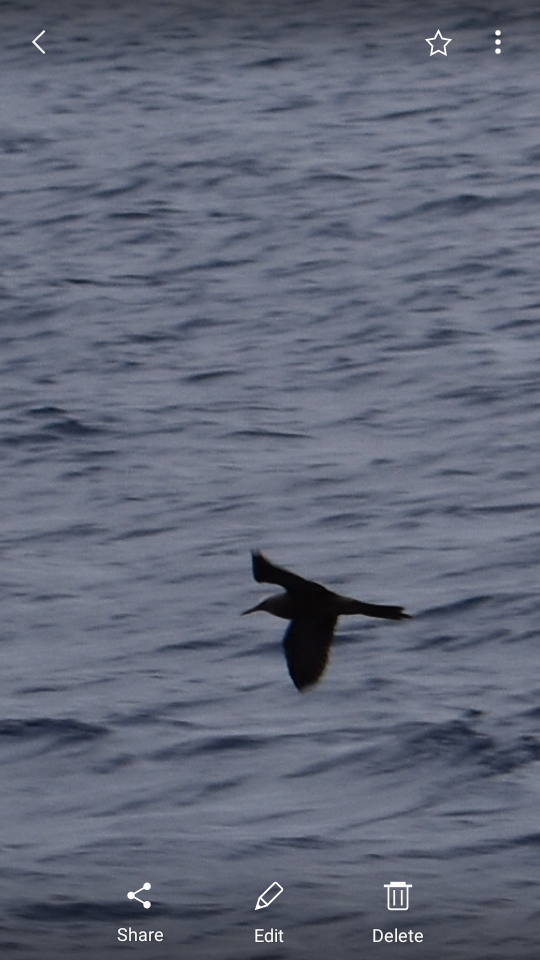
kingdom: Animalia
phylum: Chordata
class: Aves
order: Charadriiformes
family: Laridae
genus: Anous
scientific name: Anous tenuirostris
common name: Lesser noddy
